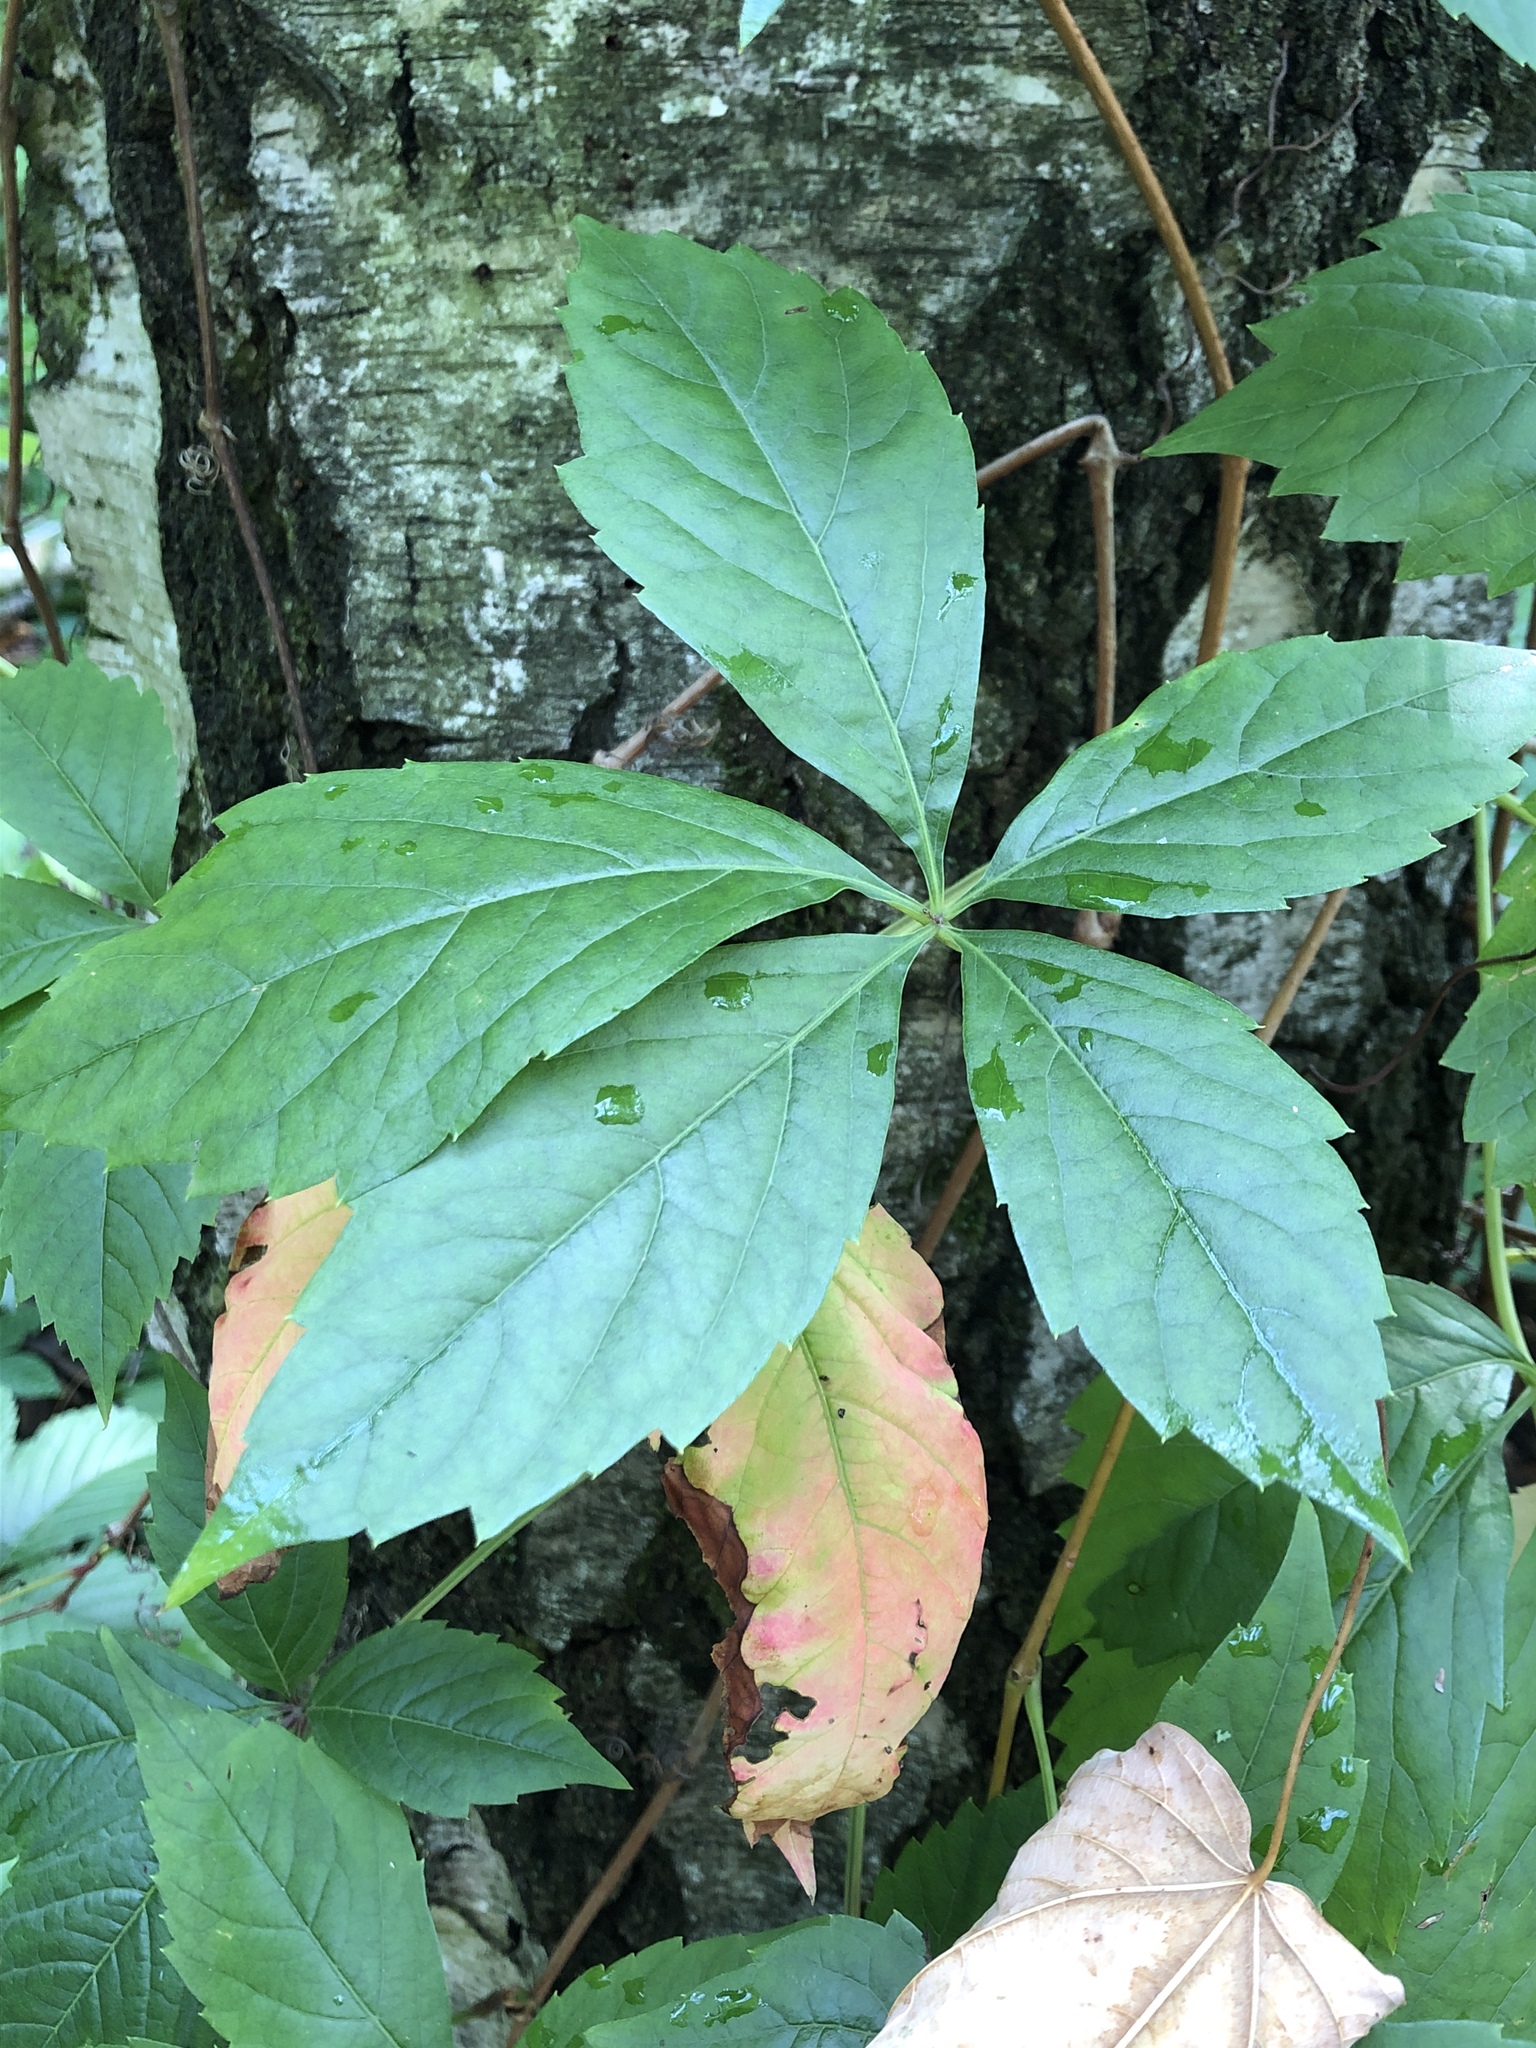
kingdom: Plantae
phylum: Tracheophyta
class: Magnoliopsida
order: Vitales
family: Vitaceae
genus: Parthenocissus
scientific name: Parthenocissus quinquefolia
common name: Virginia-creeper
